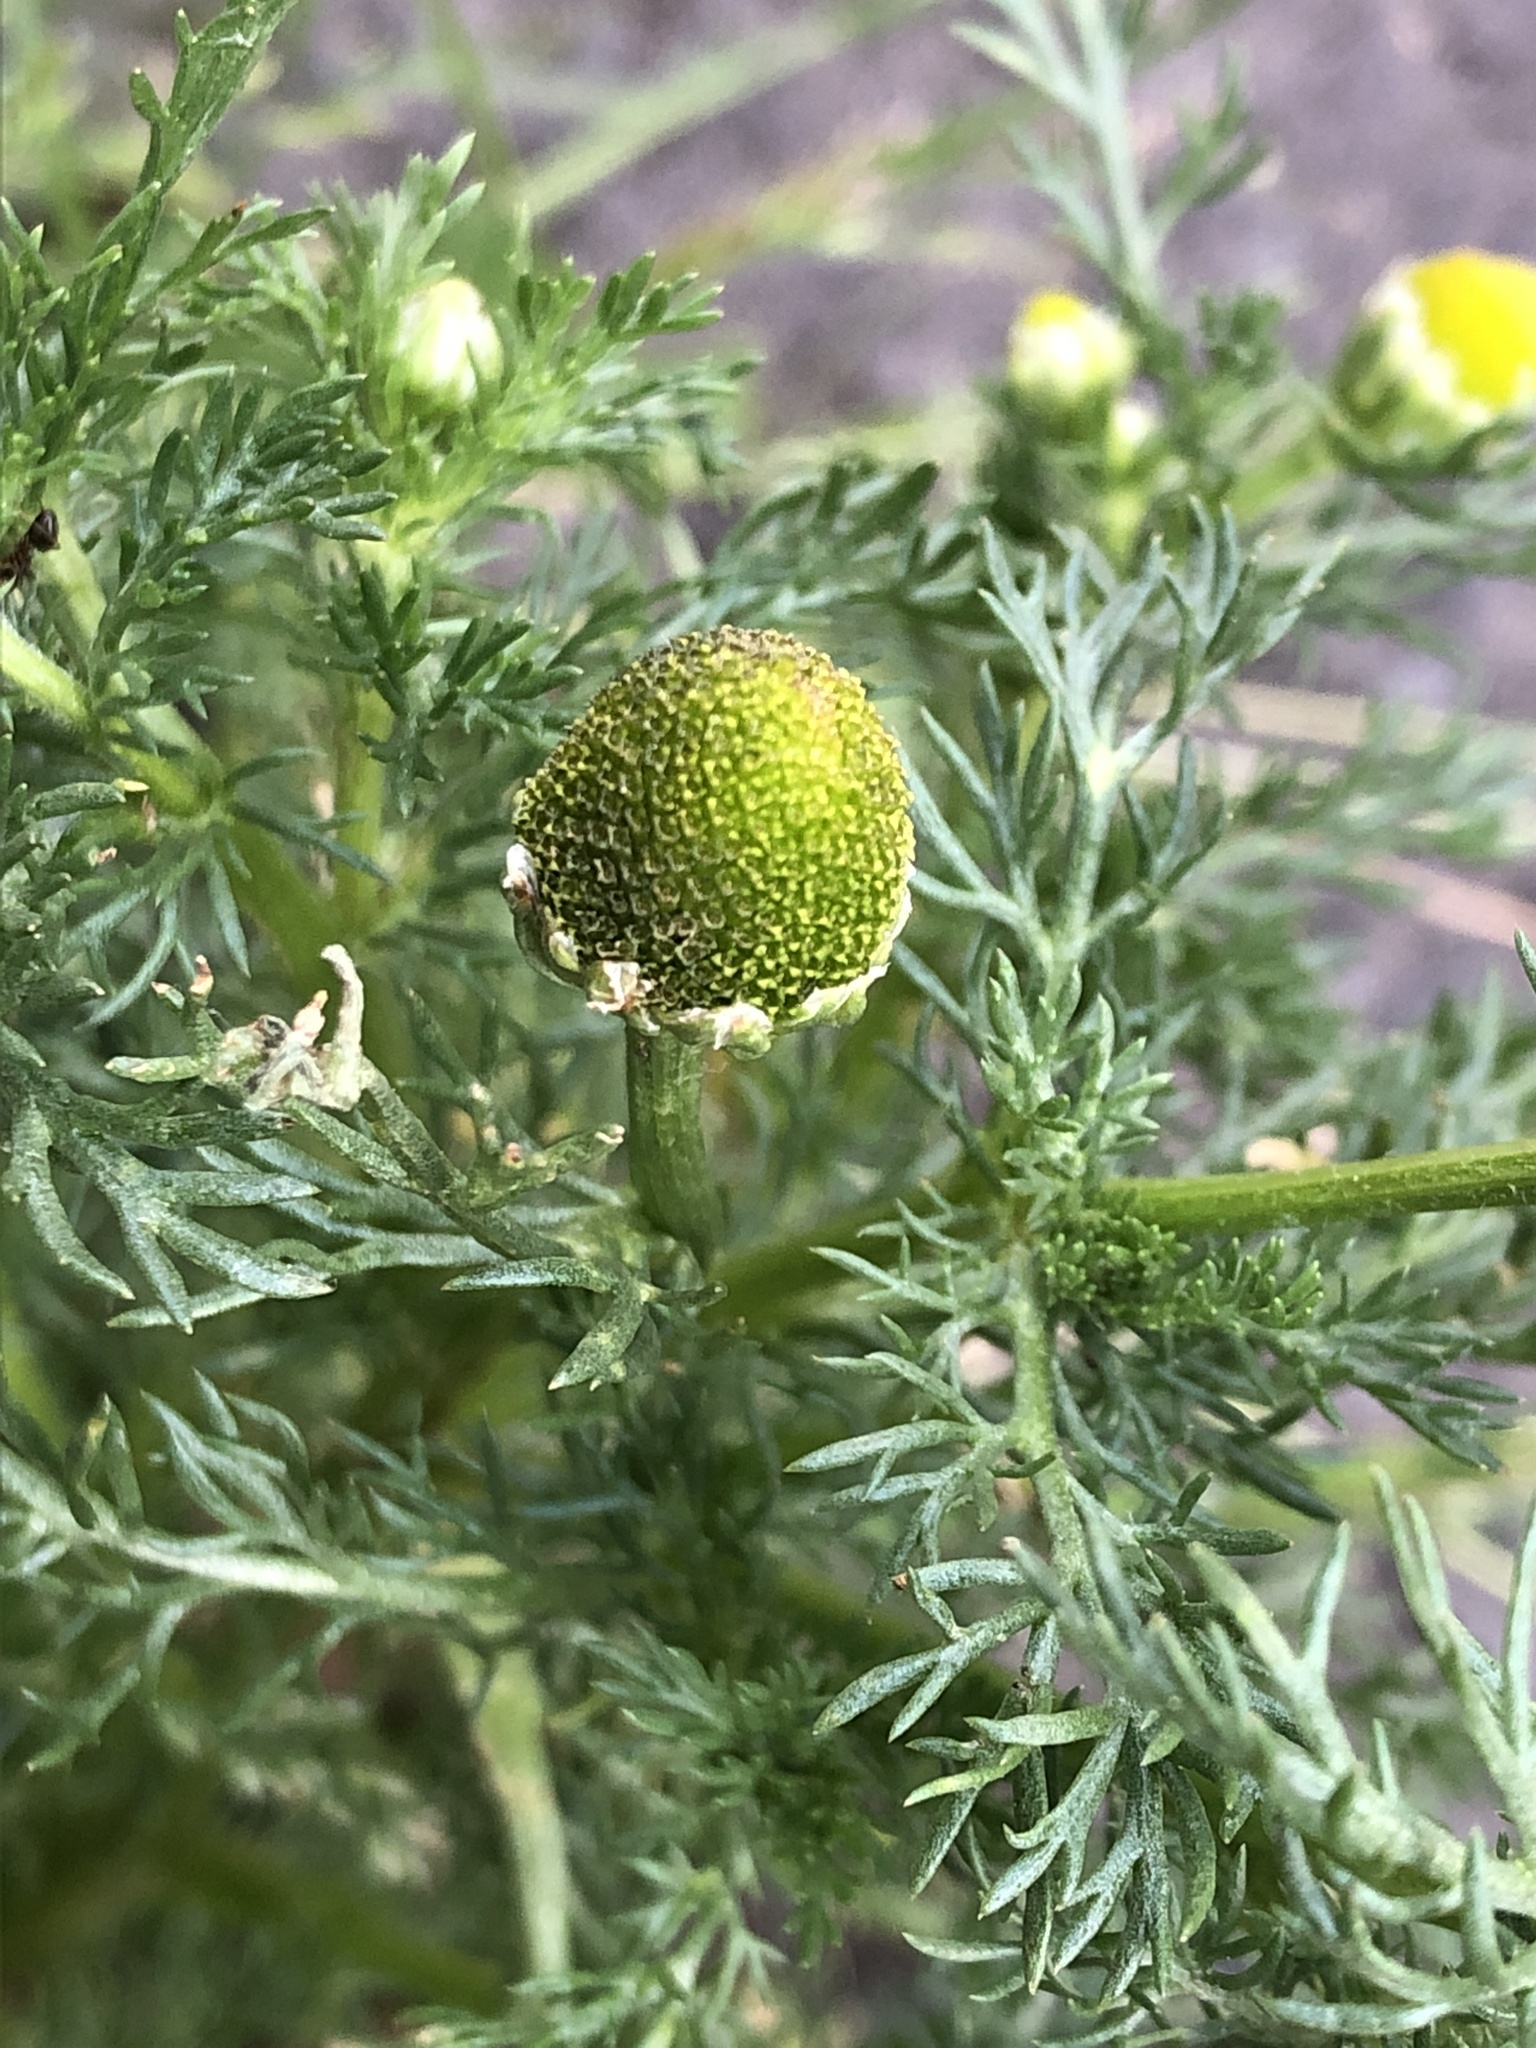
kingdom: Plantae
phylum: Tracheophyta
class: Magnoliopsida
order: Asterales
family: Asteraceae
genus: Matricaria
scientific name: Matricaria discoidea
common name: Disc mayweed
